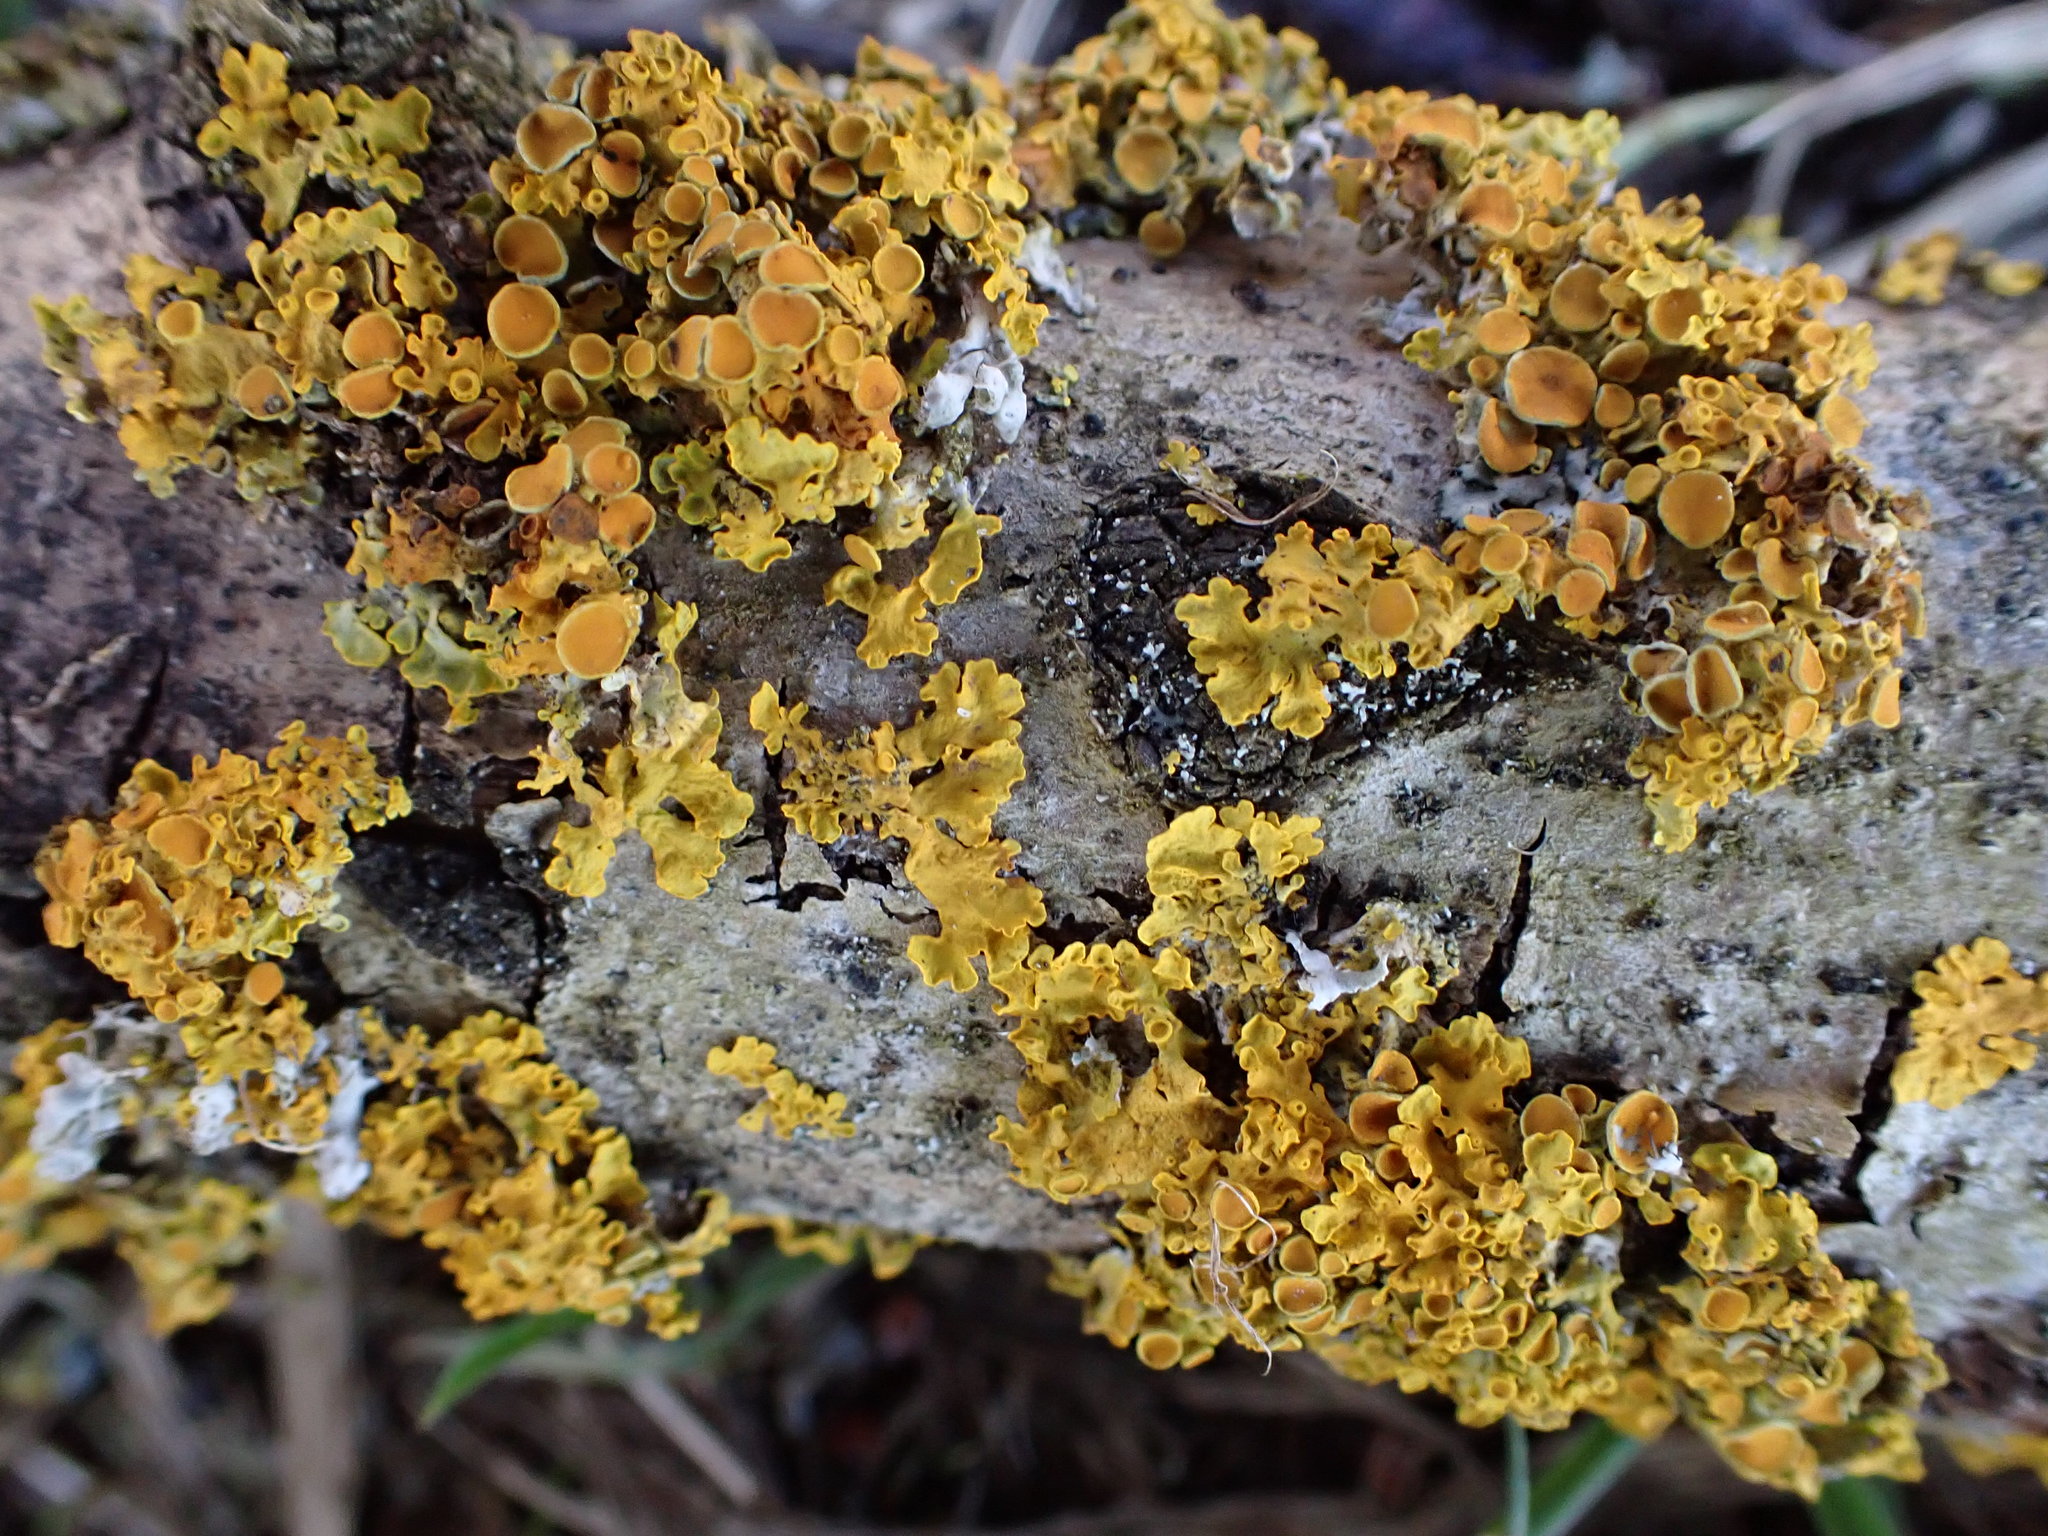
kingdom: Fungi
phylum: Ascomycota
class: Lecanoromycetes
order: Teloschistales
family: Teloschistaceae
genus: Xanthoria
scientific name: Xanthoria parietina
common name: Common orange lichen
